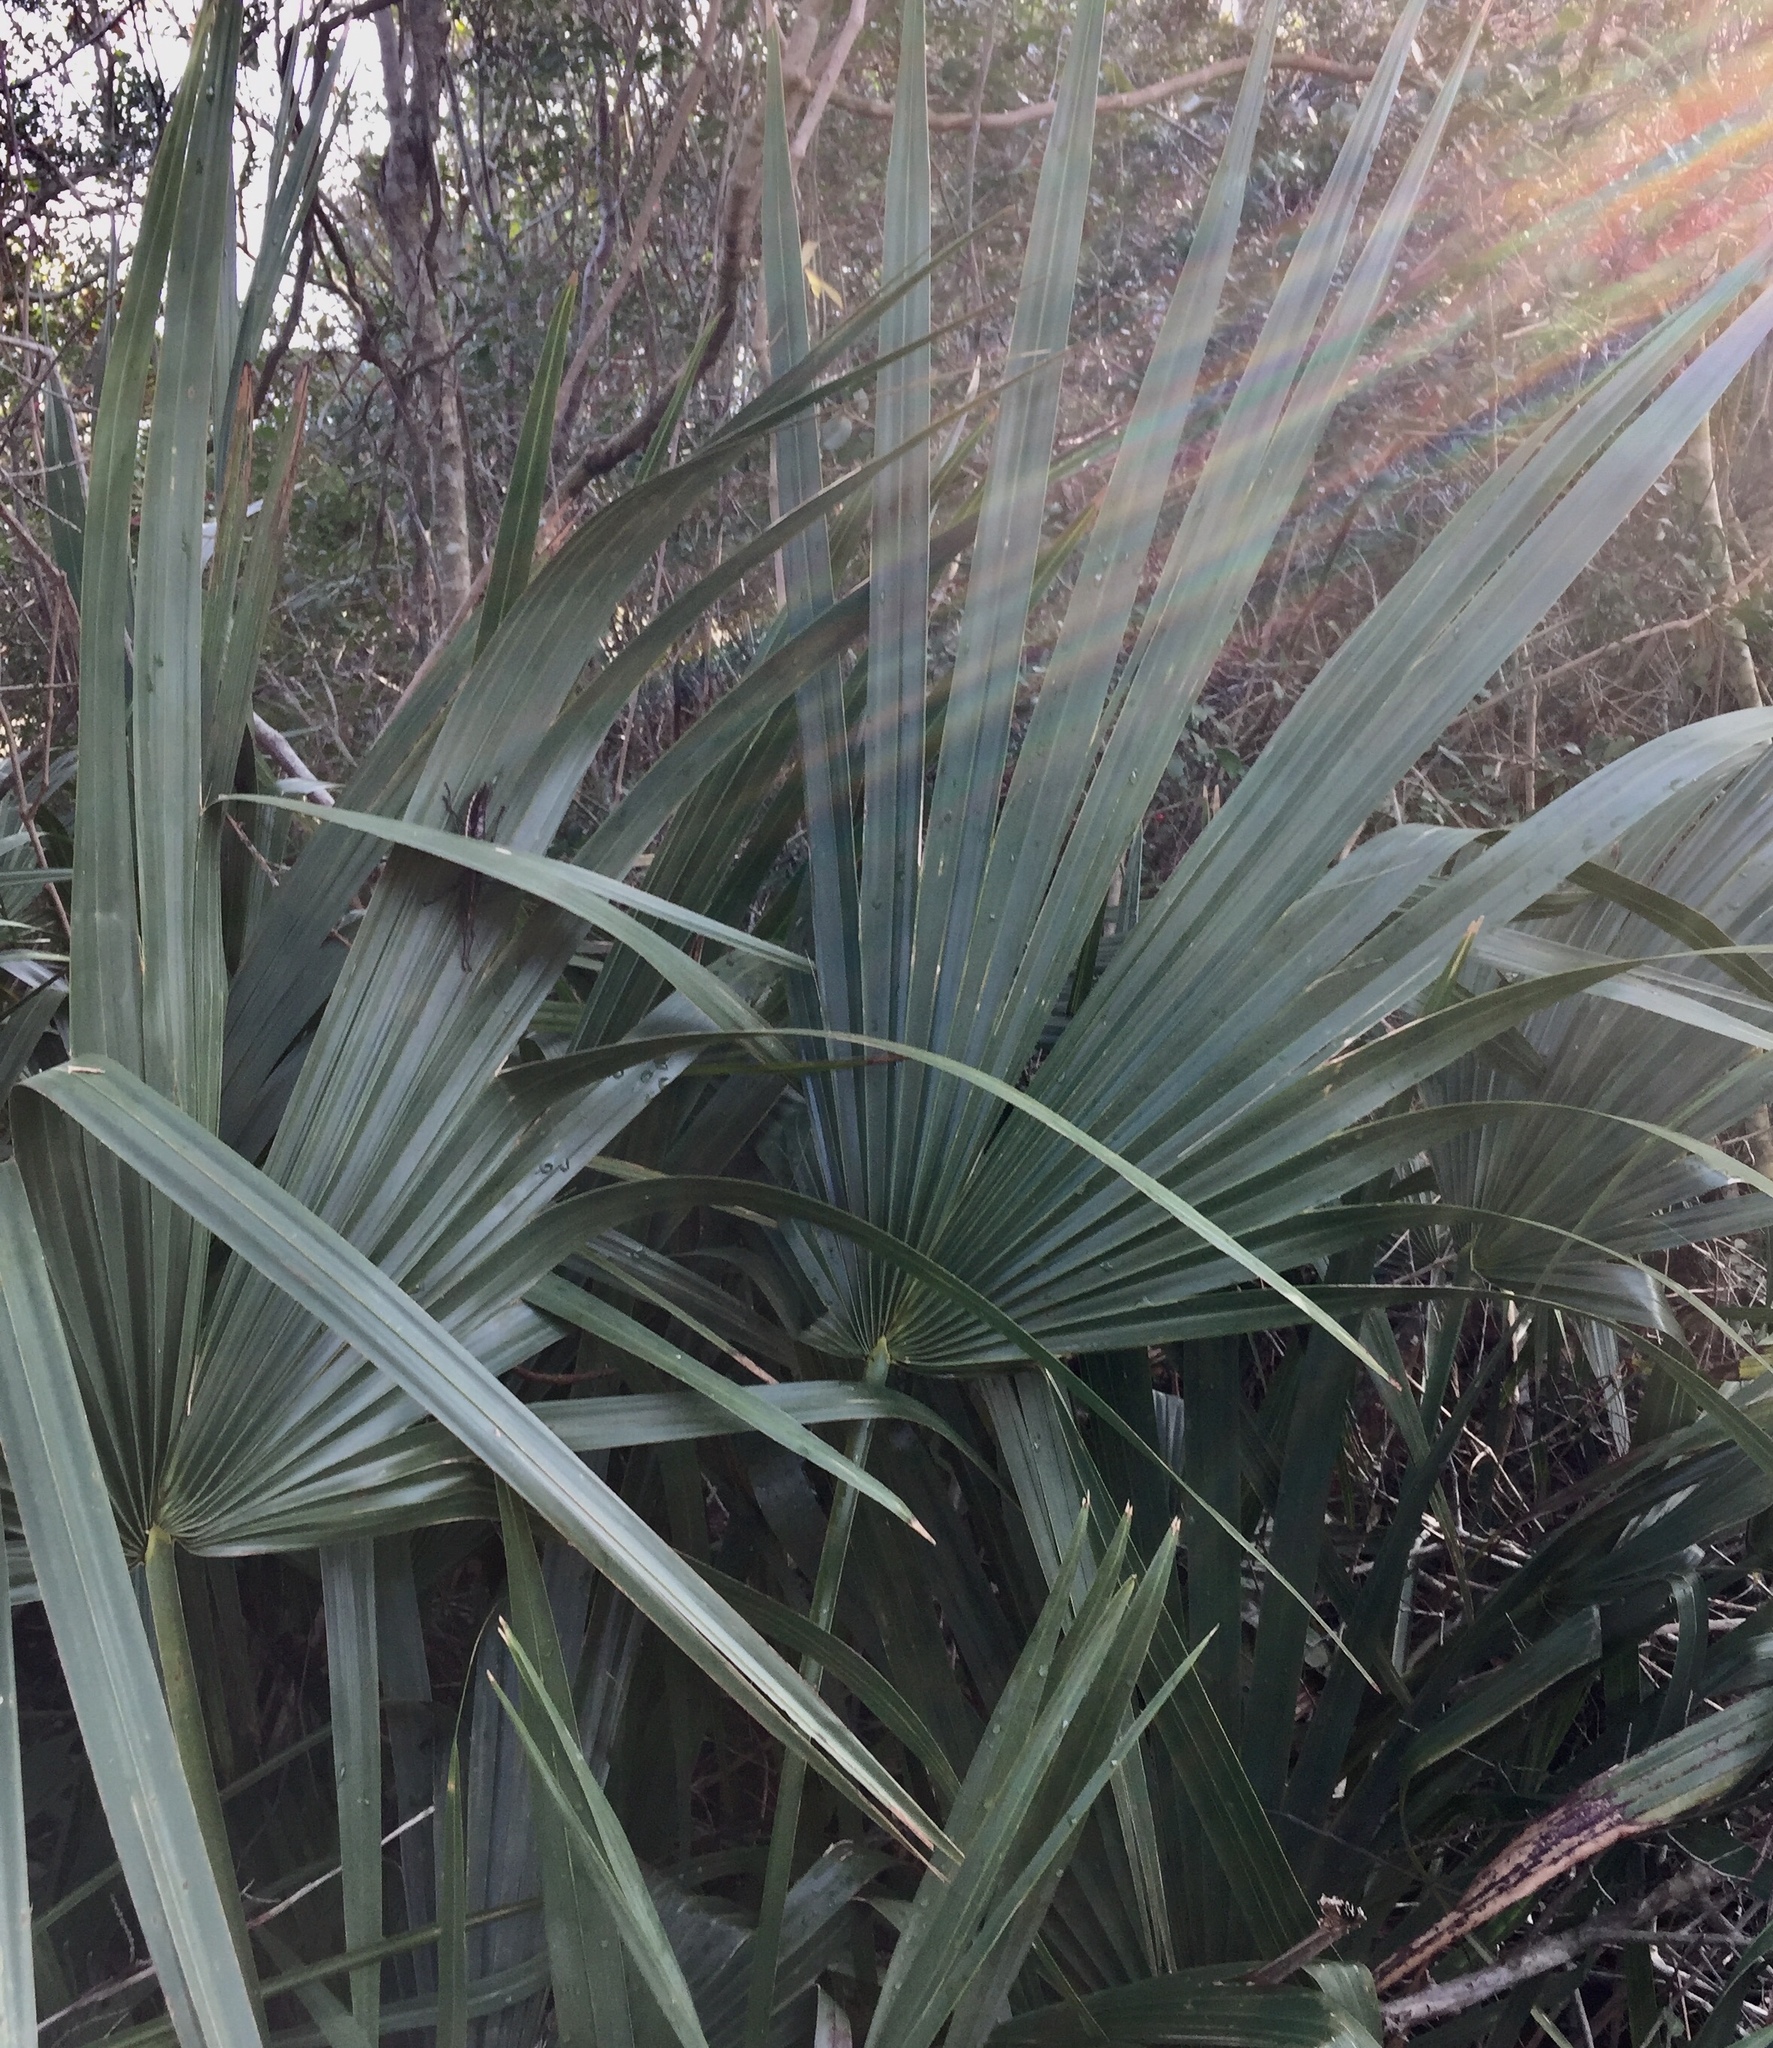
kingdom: Plantae
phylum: Tracheophyta
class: Liliopsida
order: Arecales
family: Arecaceae
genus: Sabal
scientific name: Sabal minor
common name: Dwarf palmetto
